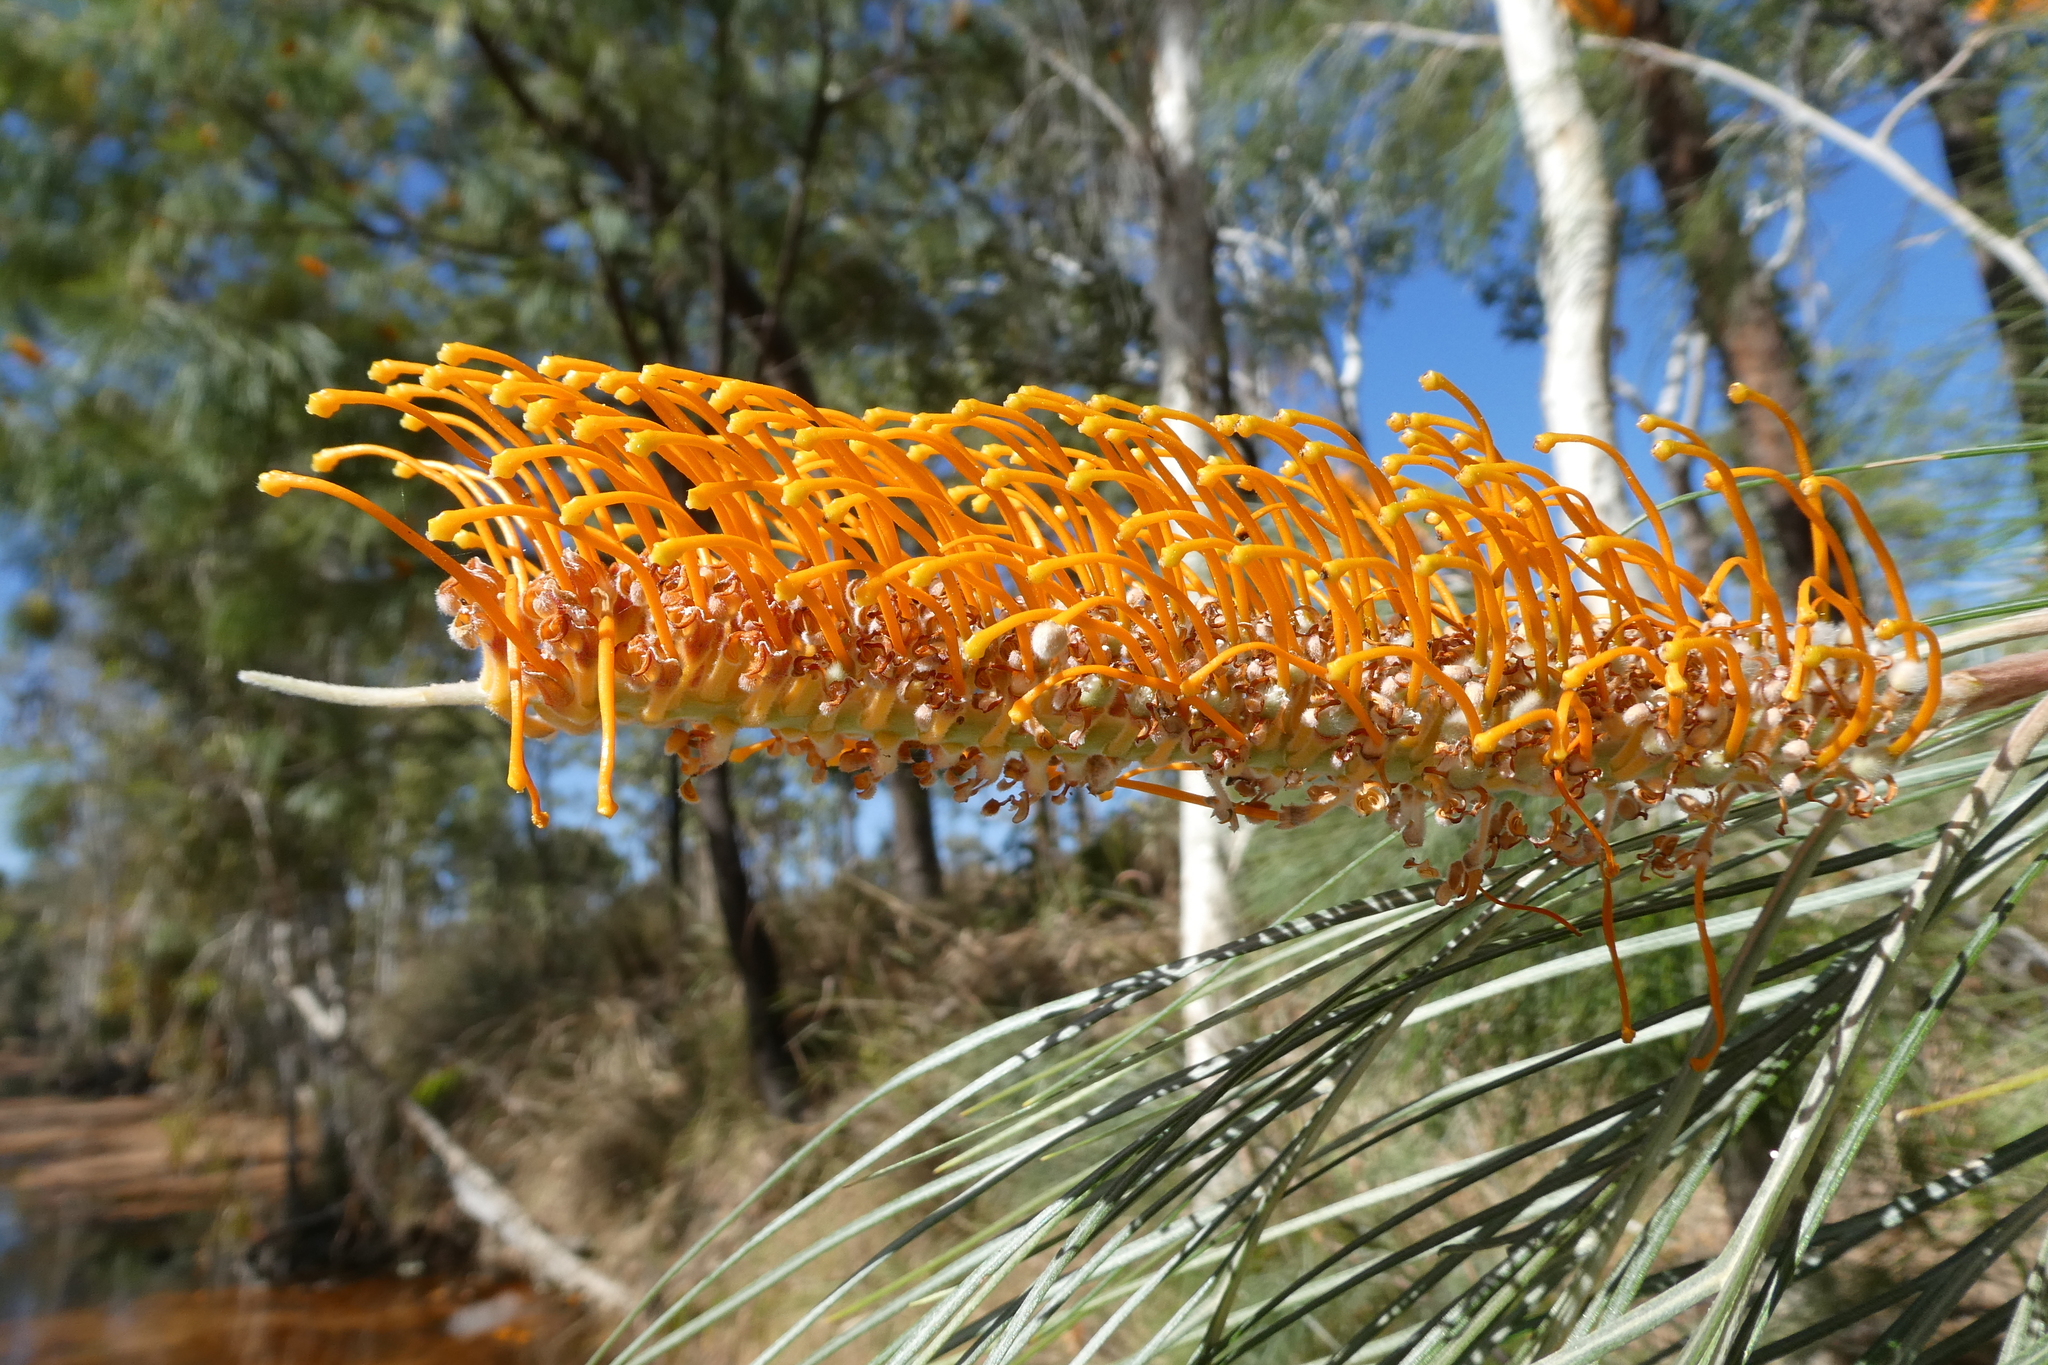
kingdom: Plantae
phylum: Tracheophyta
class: Magnoliopsida
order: Proteales
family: Proteaceae
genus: Grevillea
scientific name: Grevillea pteridifolia
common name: Golden grevillea
